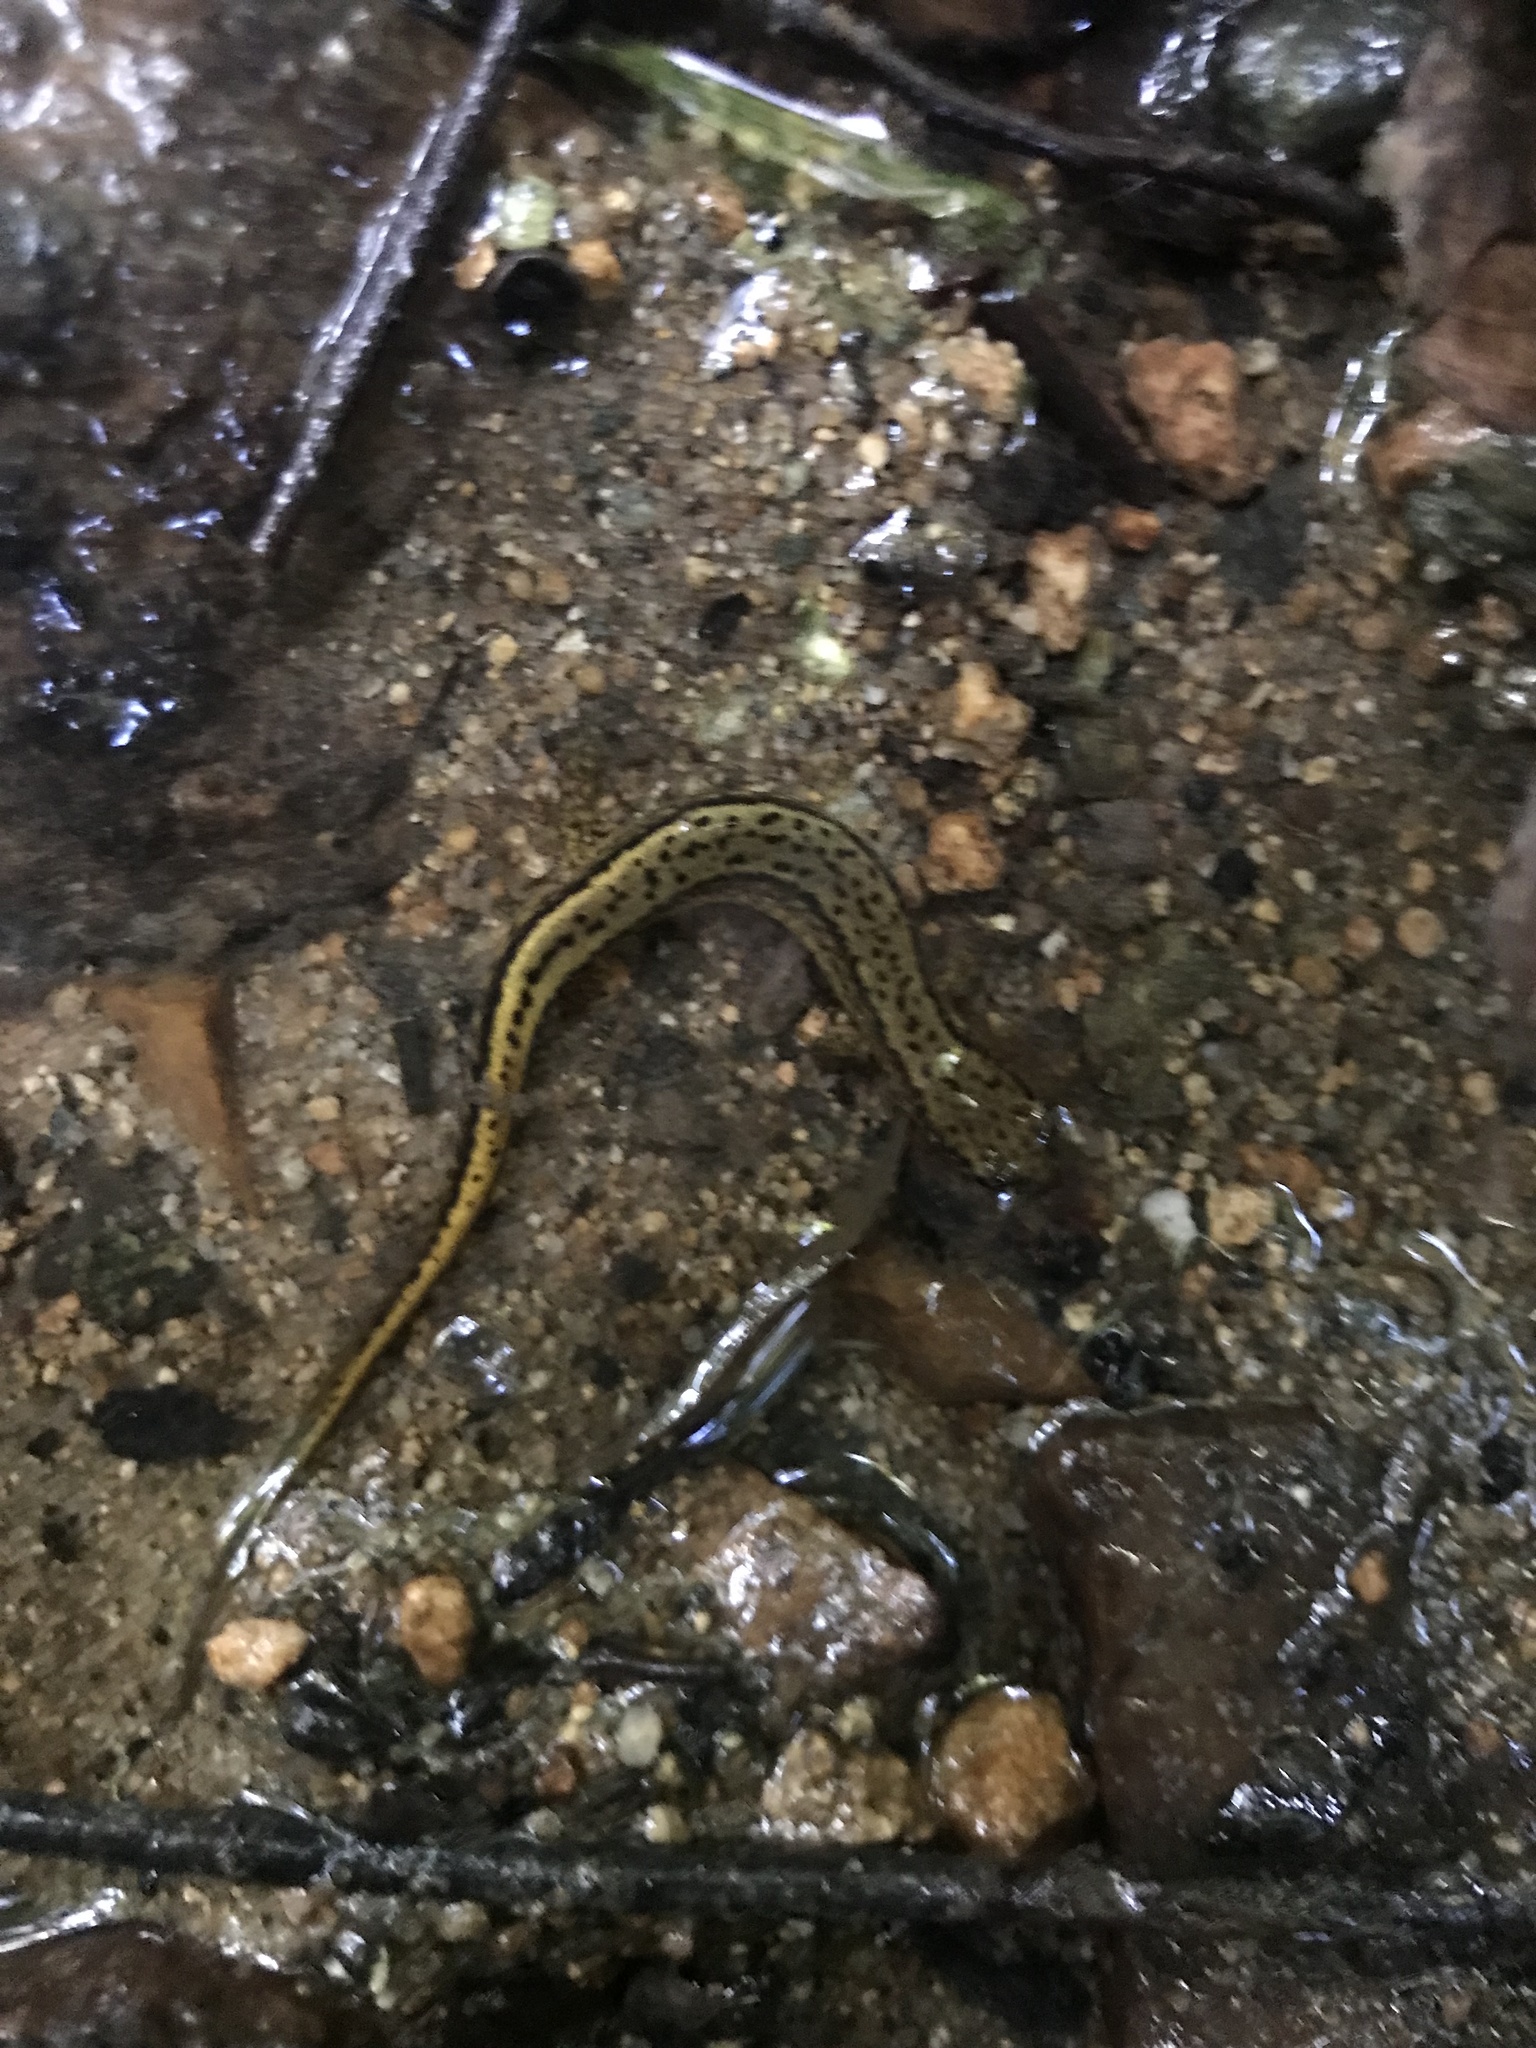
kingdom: Animalia
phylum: Chordata
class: Amphibia
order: Caudata
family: Plethodontidae
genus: Eurycea
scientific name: Eurycea cirrigera
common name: Southern two-lined salamander
